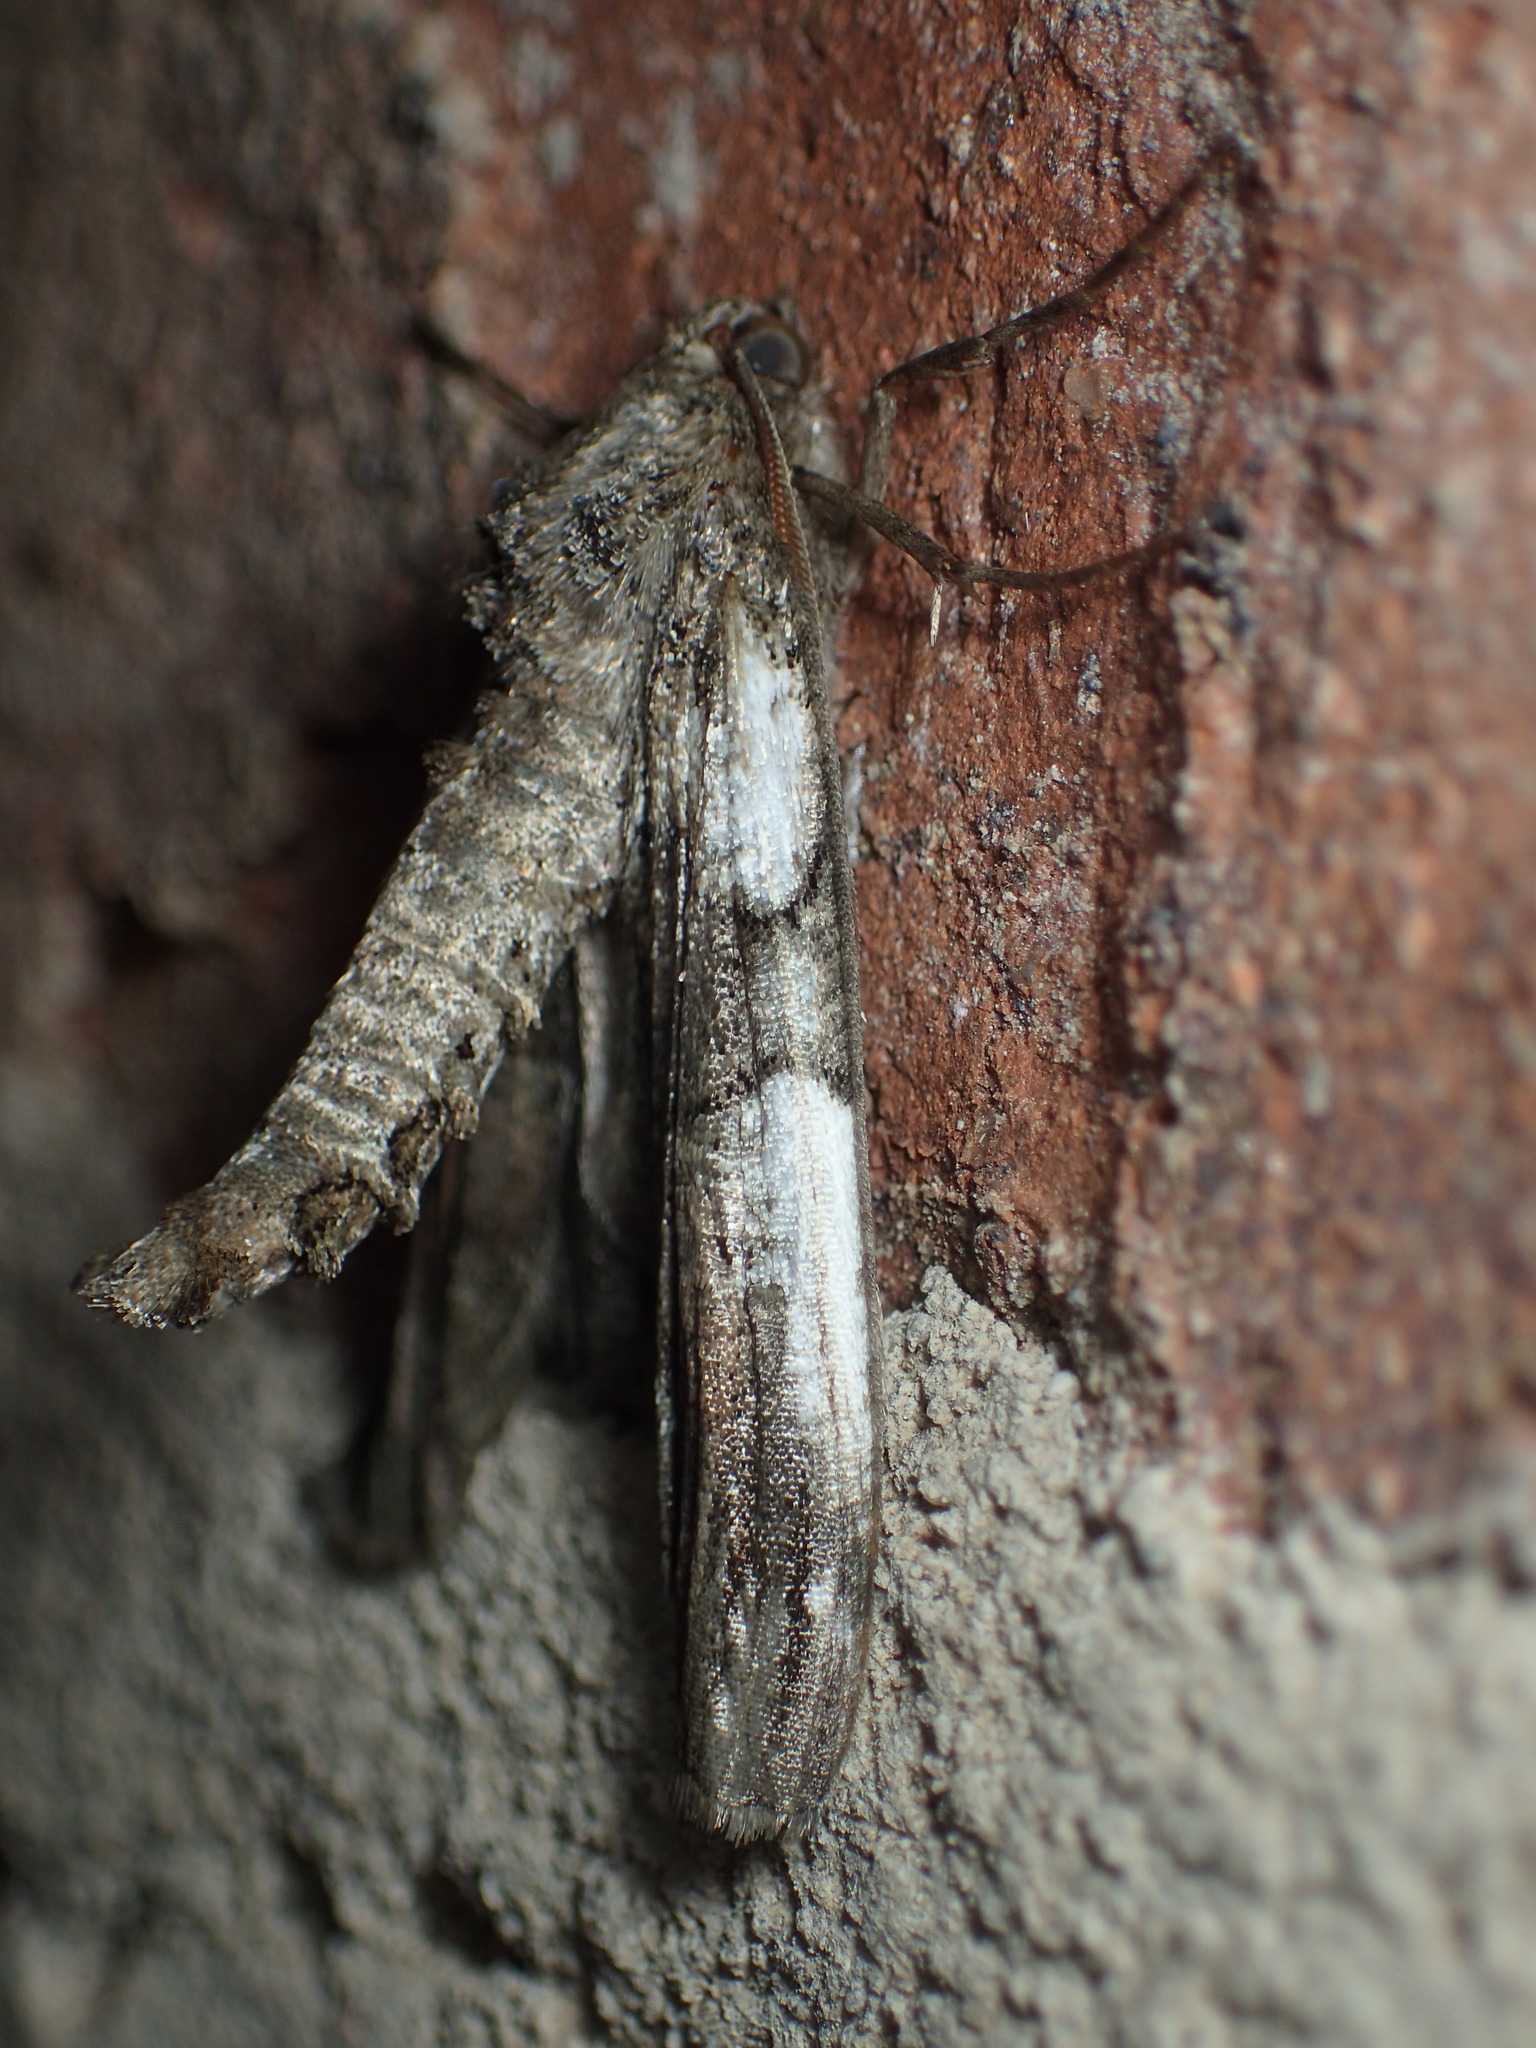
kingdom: Animalia
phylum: Arthropoda
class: Insecta
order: Lepidoptera
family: Geometridae
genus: Ceratonyx
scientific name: Ceratonyx satanaria
